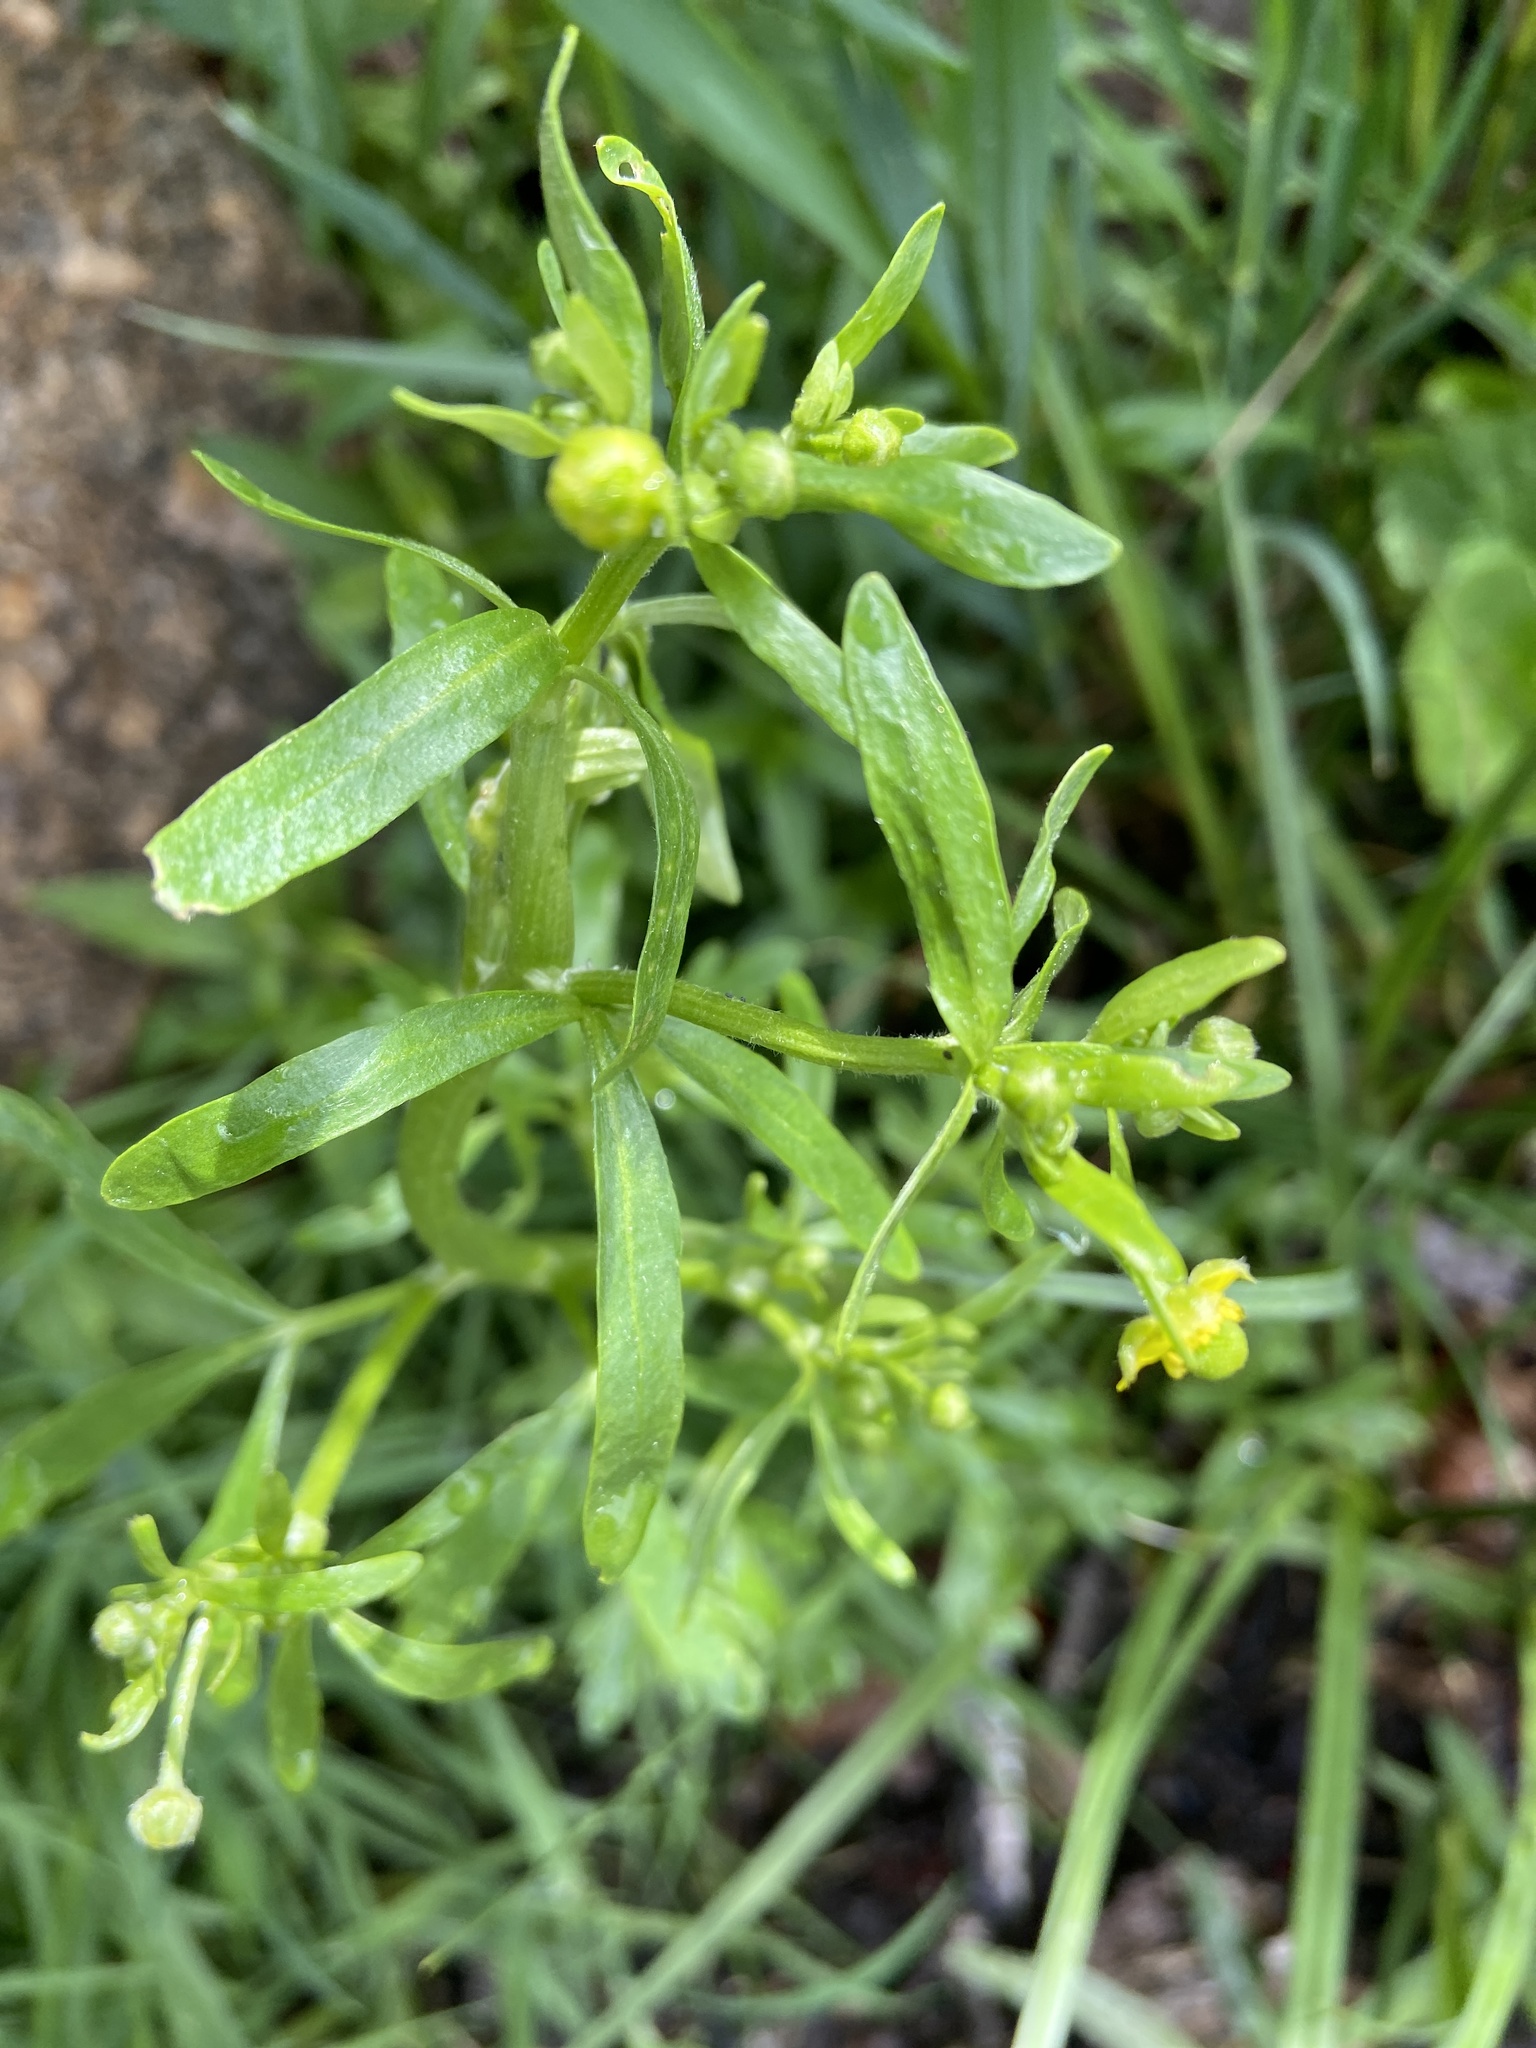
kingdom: Plantae
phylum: Tracheophyta
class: Magnoliopsida
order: Ranunculales
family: Ranunculaceae
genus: Ranunculus
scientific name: Ranunculus sceleratus
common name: Celery-leaved buttercup
